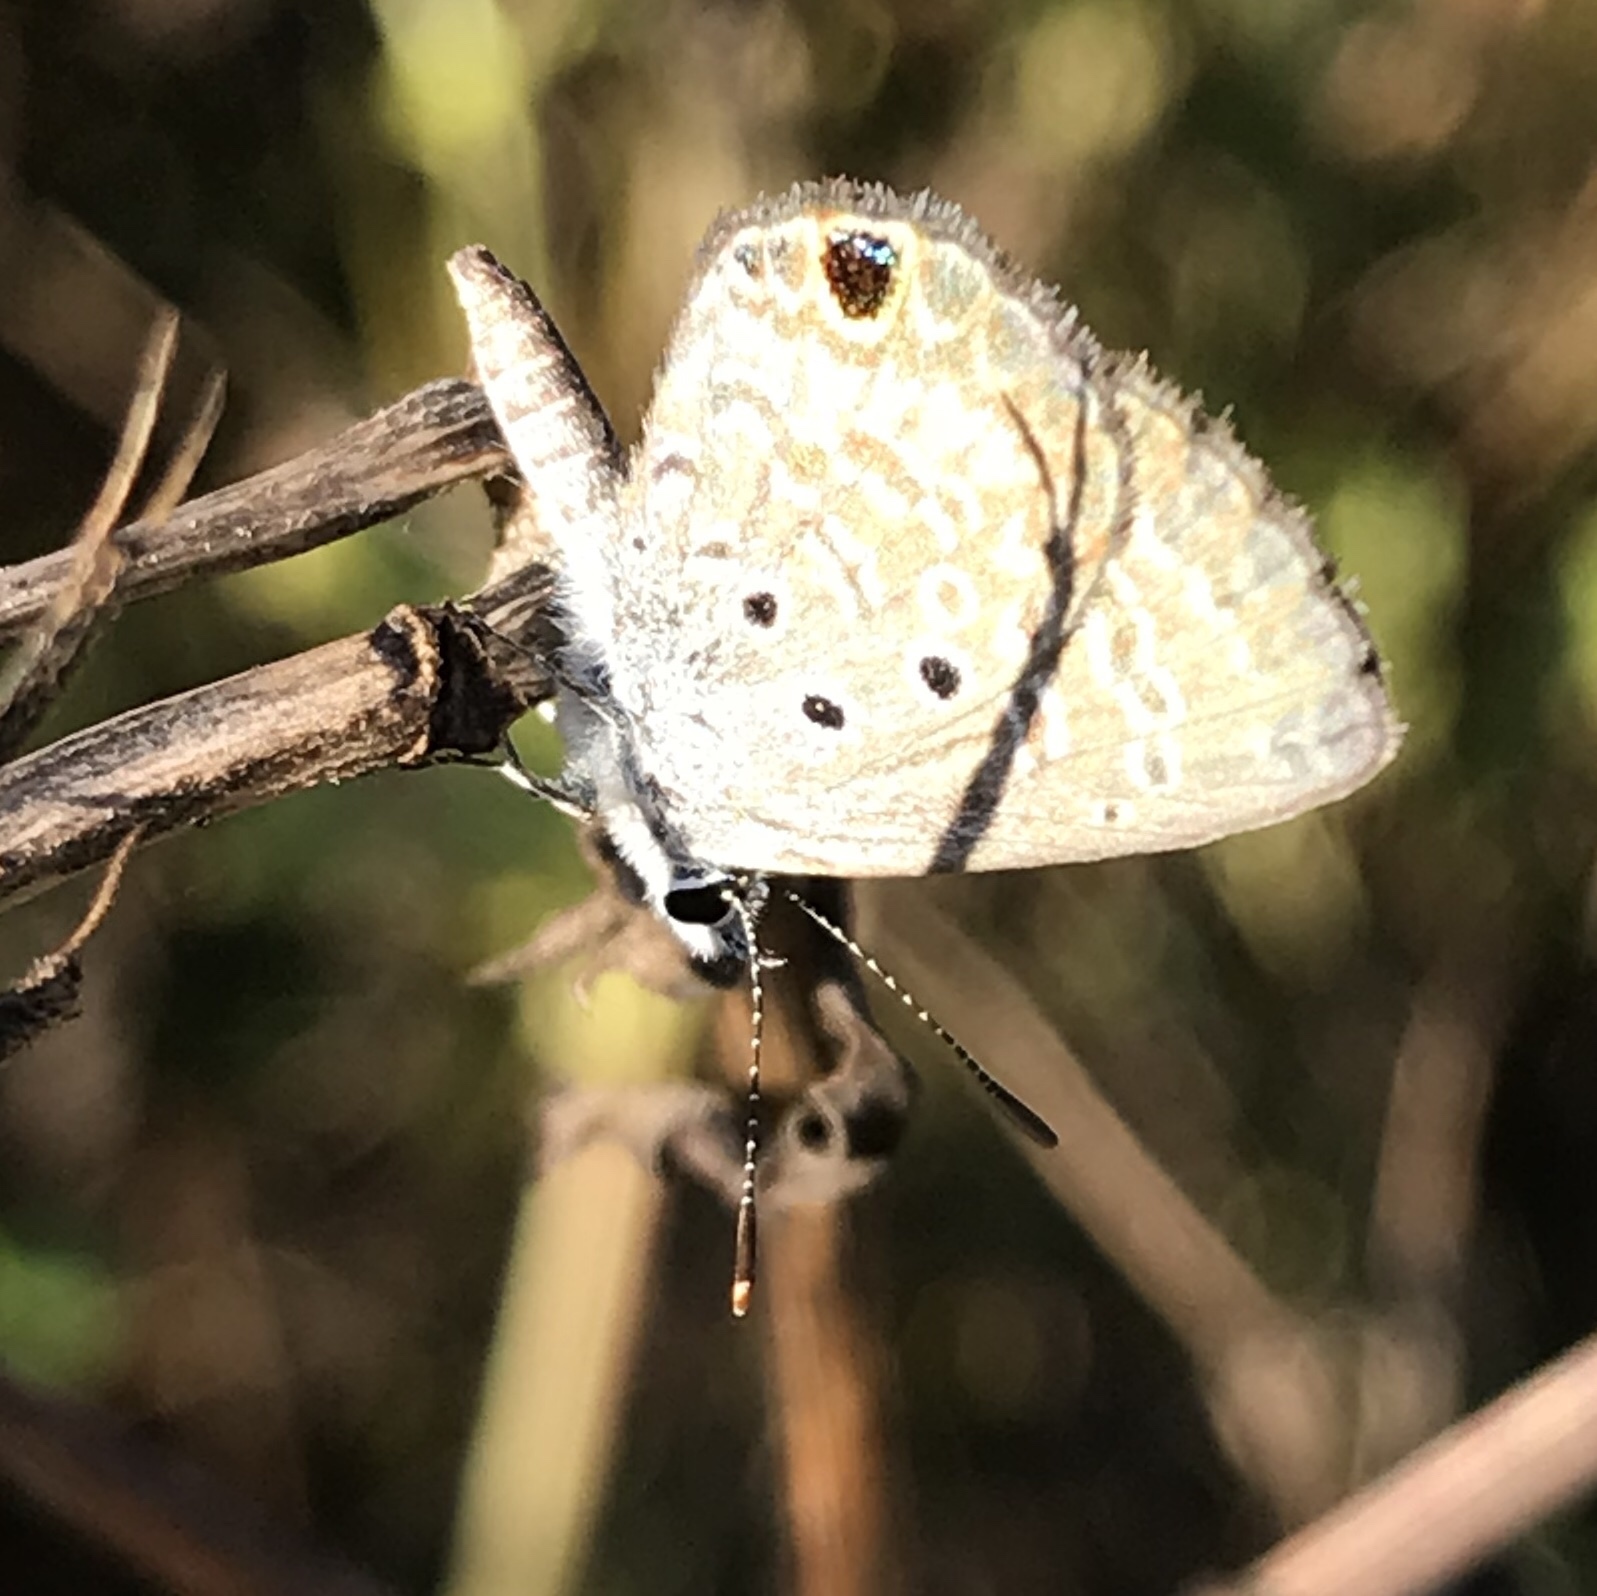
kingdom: Animalia
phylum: Arthropoda
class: Insecta
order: Lepidoptera
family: Lycaenidae
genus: Hemiargus
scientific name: Hemiargus ceraunus
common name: Ceraunus blue
